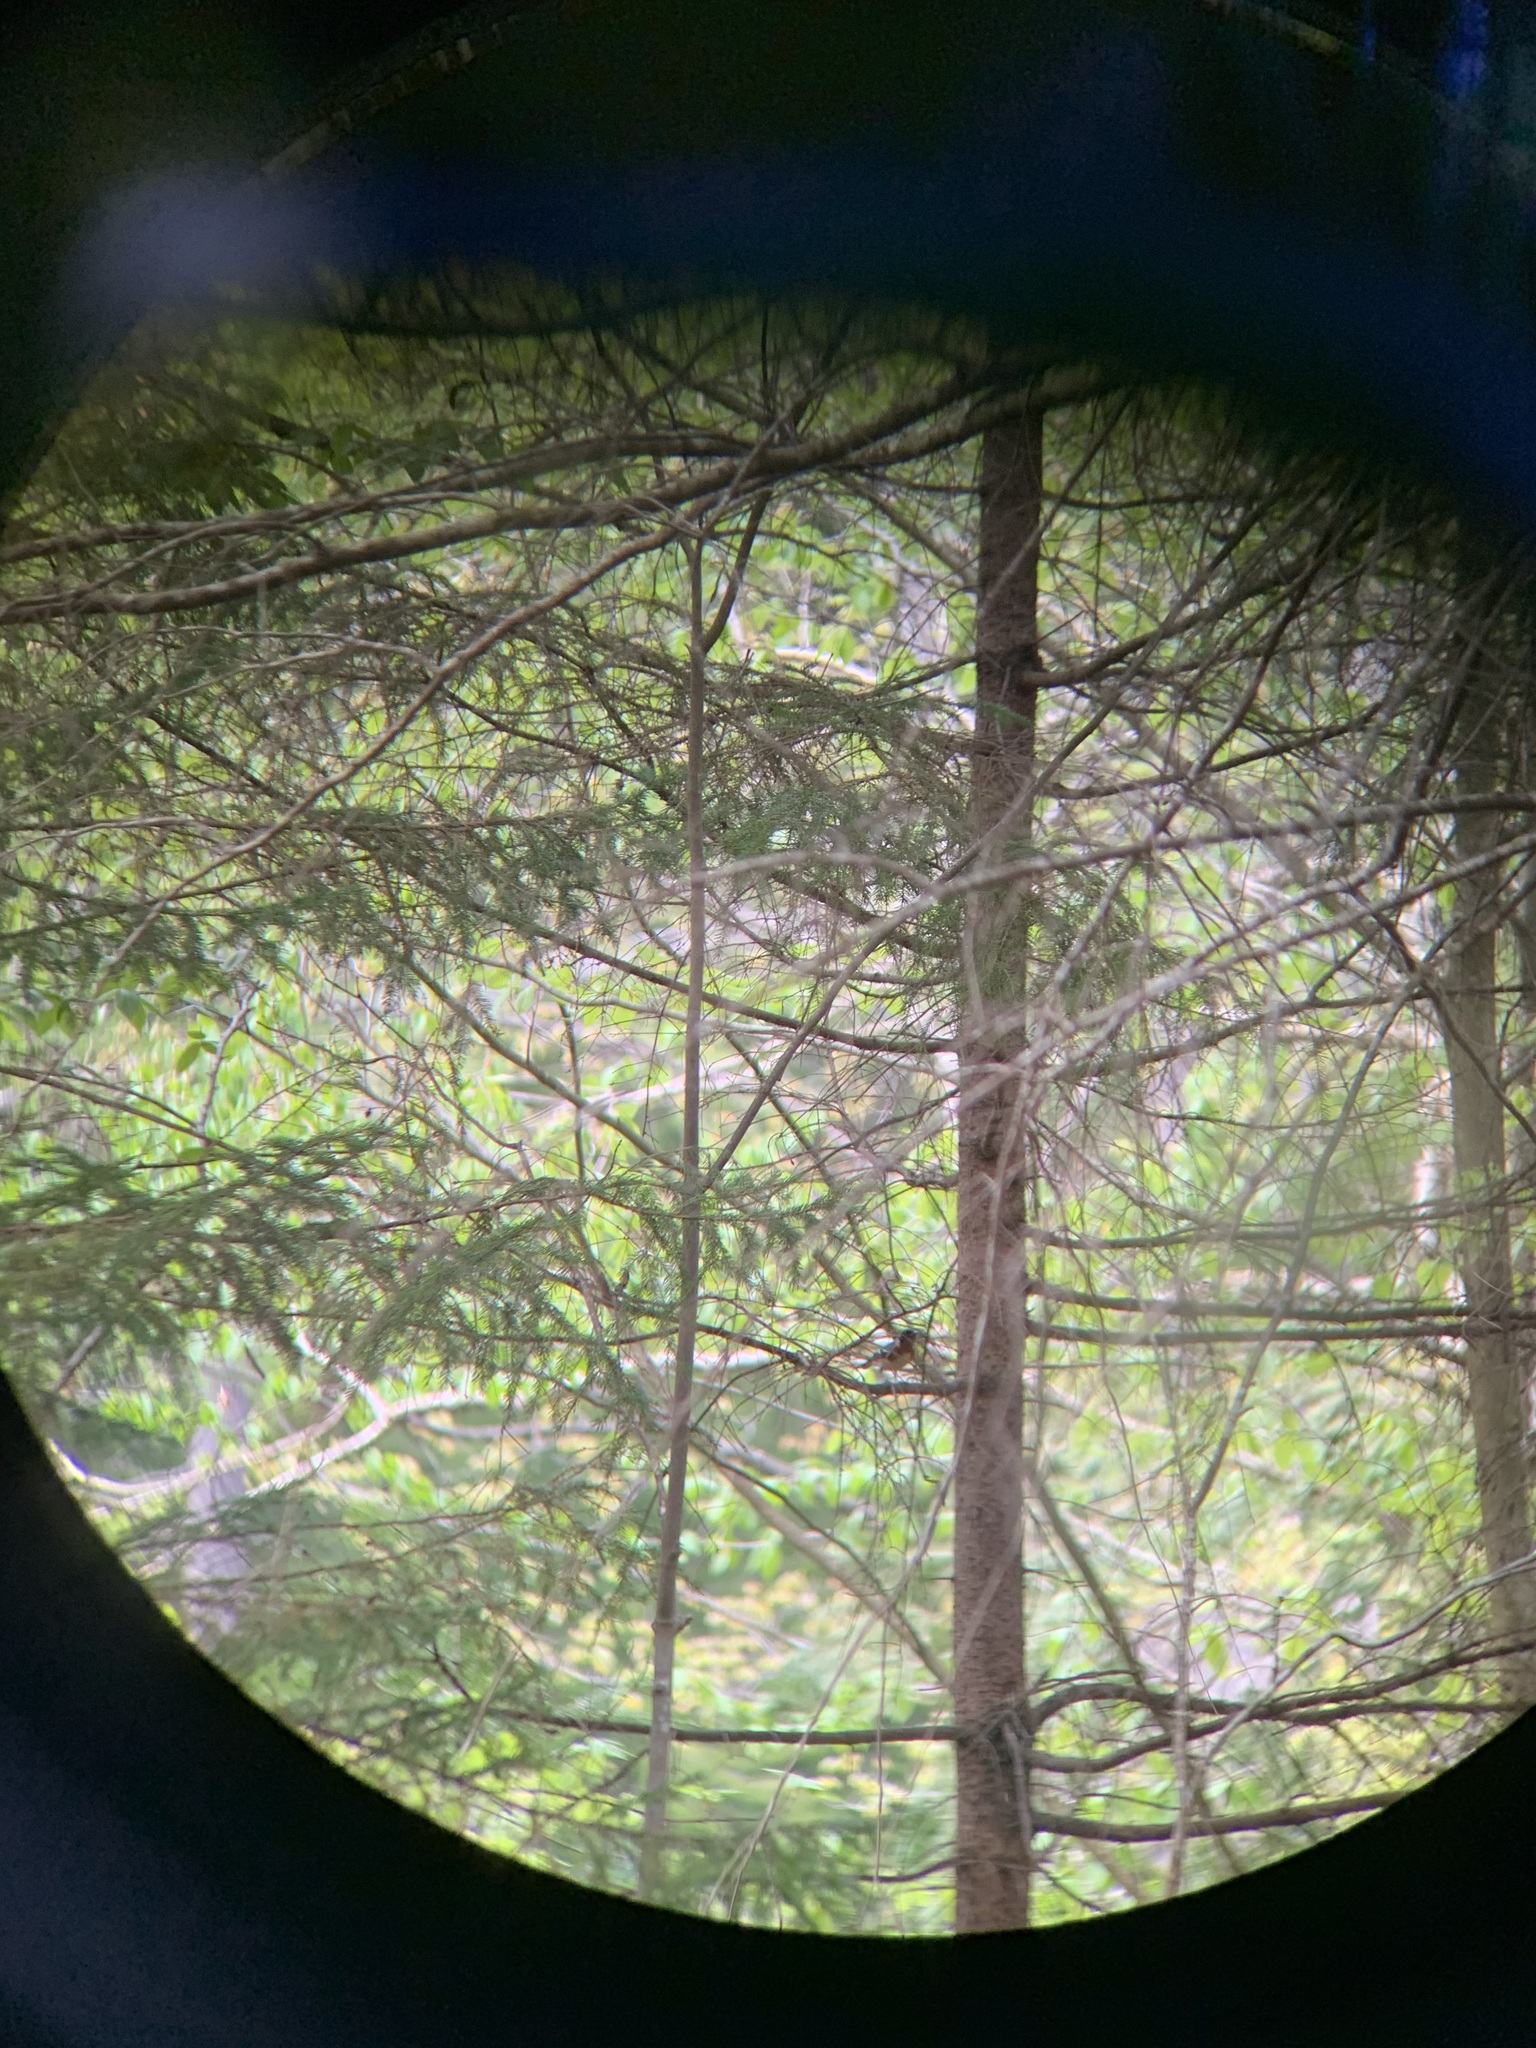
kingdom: Animalia
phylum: Chordata
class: Aves
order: Passeriformes
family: Parulidae
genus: Setophaga
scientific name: Setophaga castanea
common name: Bay-breasted warbler
